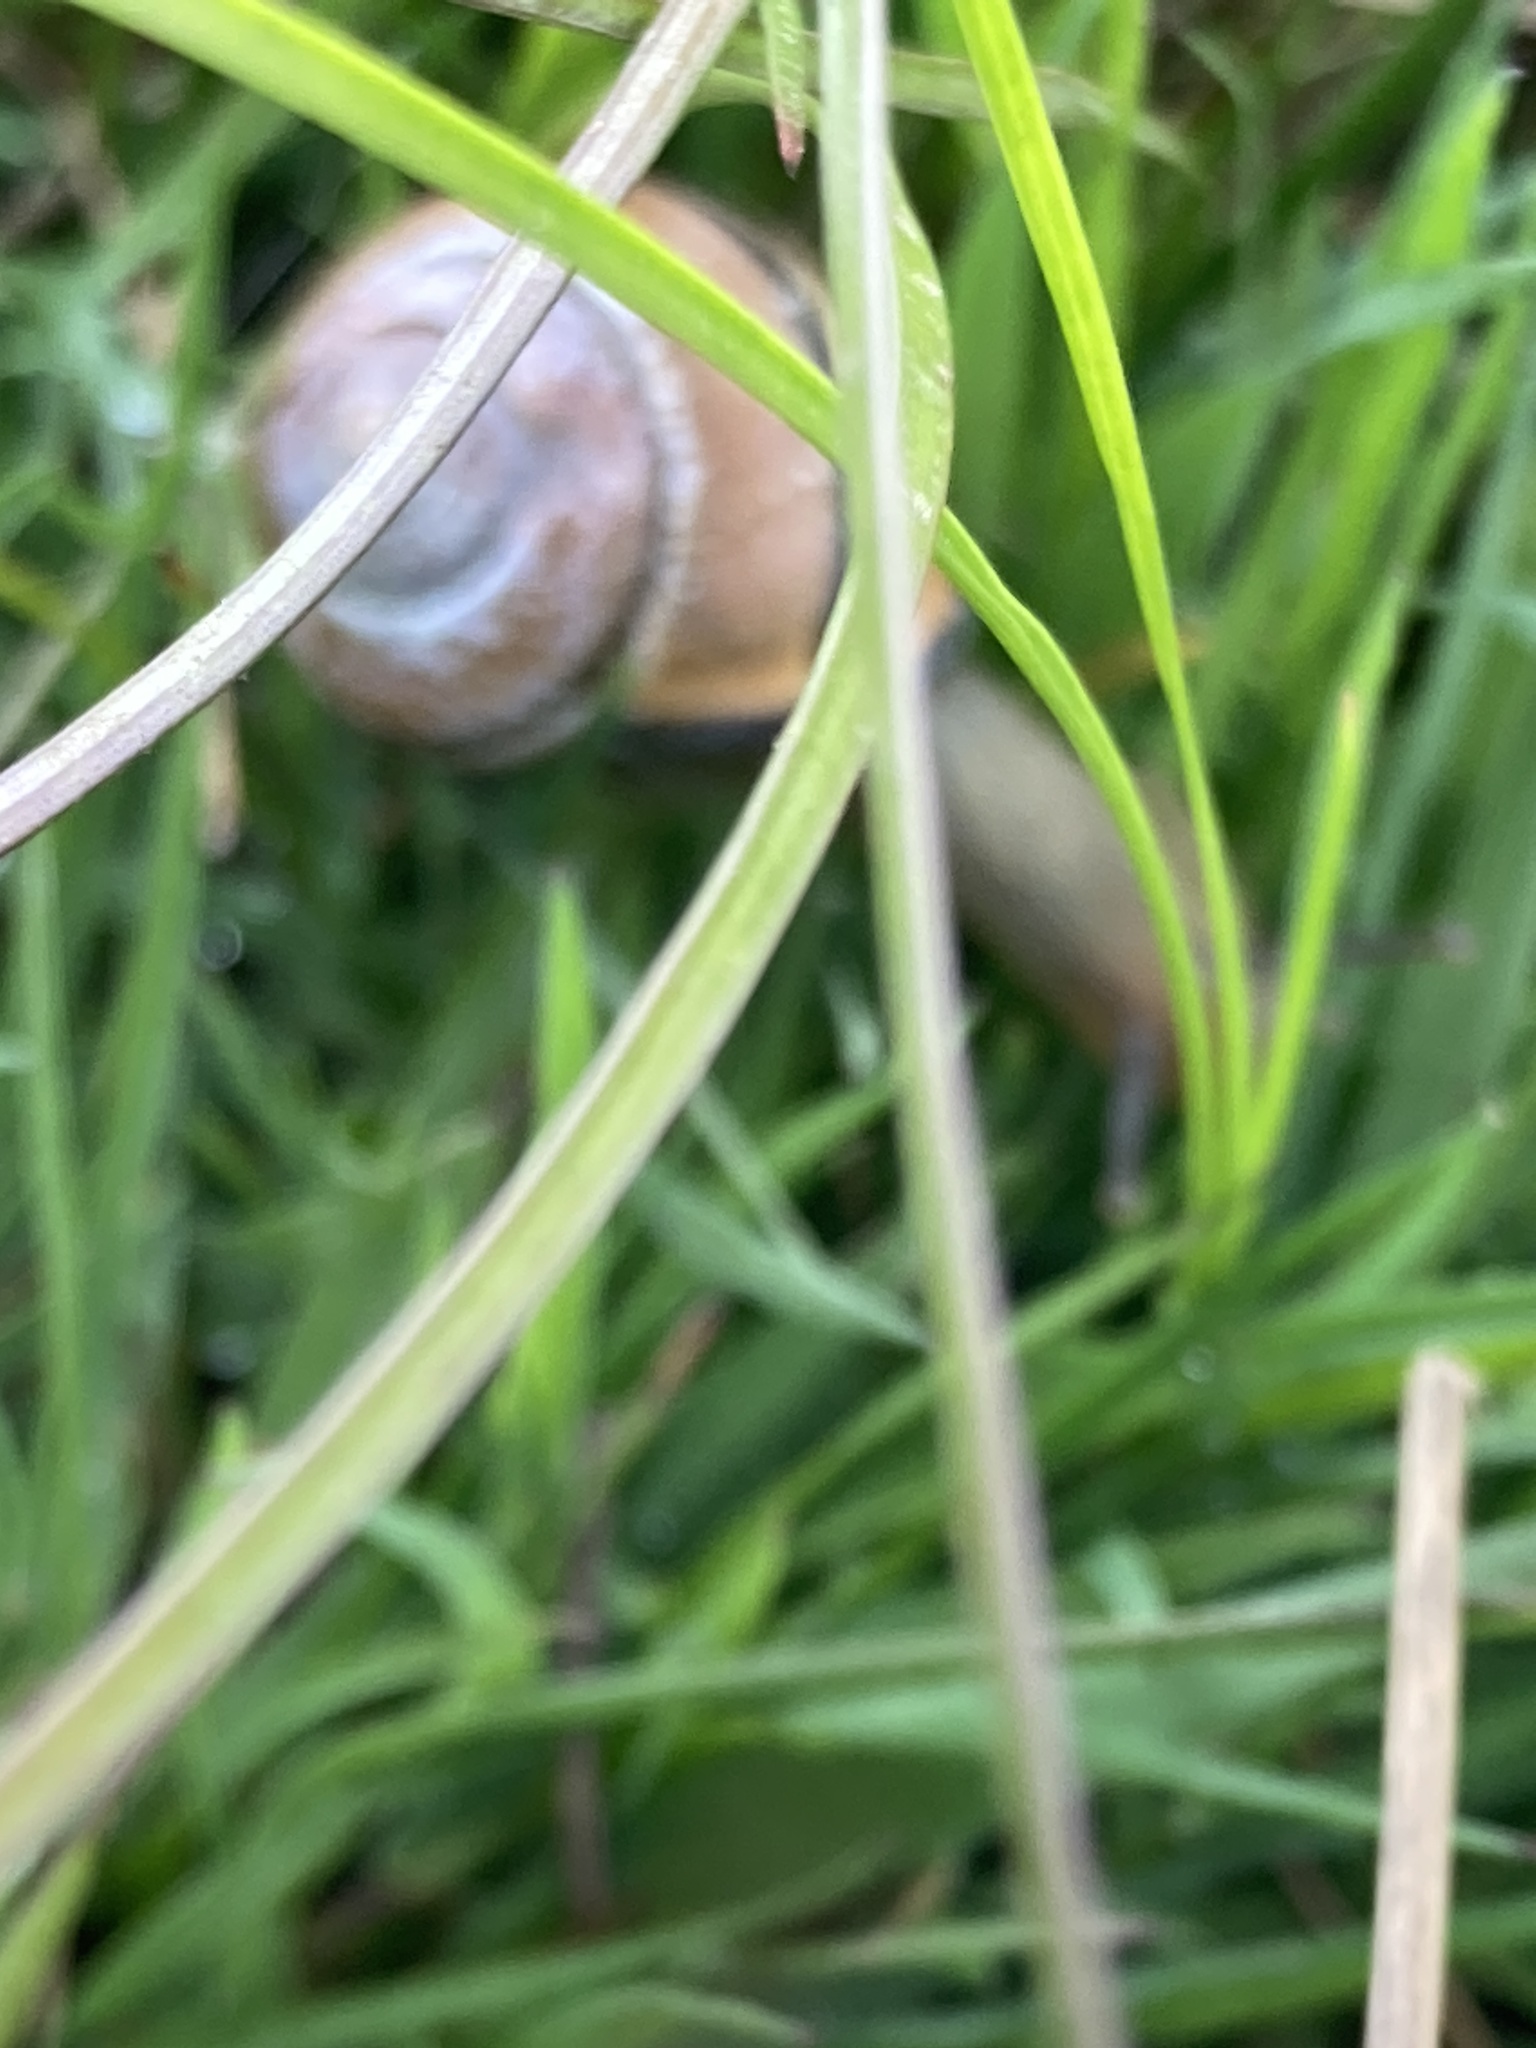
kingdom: Animalia
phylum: Mollusca
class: Gastropoda
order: Stylommatophora
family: Helicidae
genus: Cepaea
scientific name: Cepaea nemoralis
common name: Grovesnail
